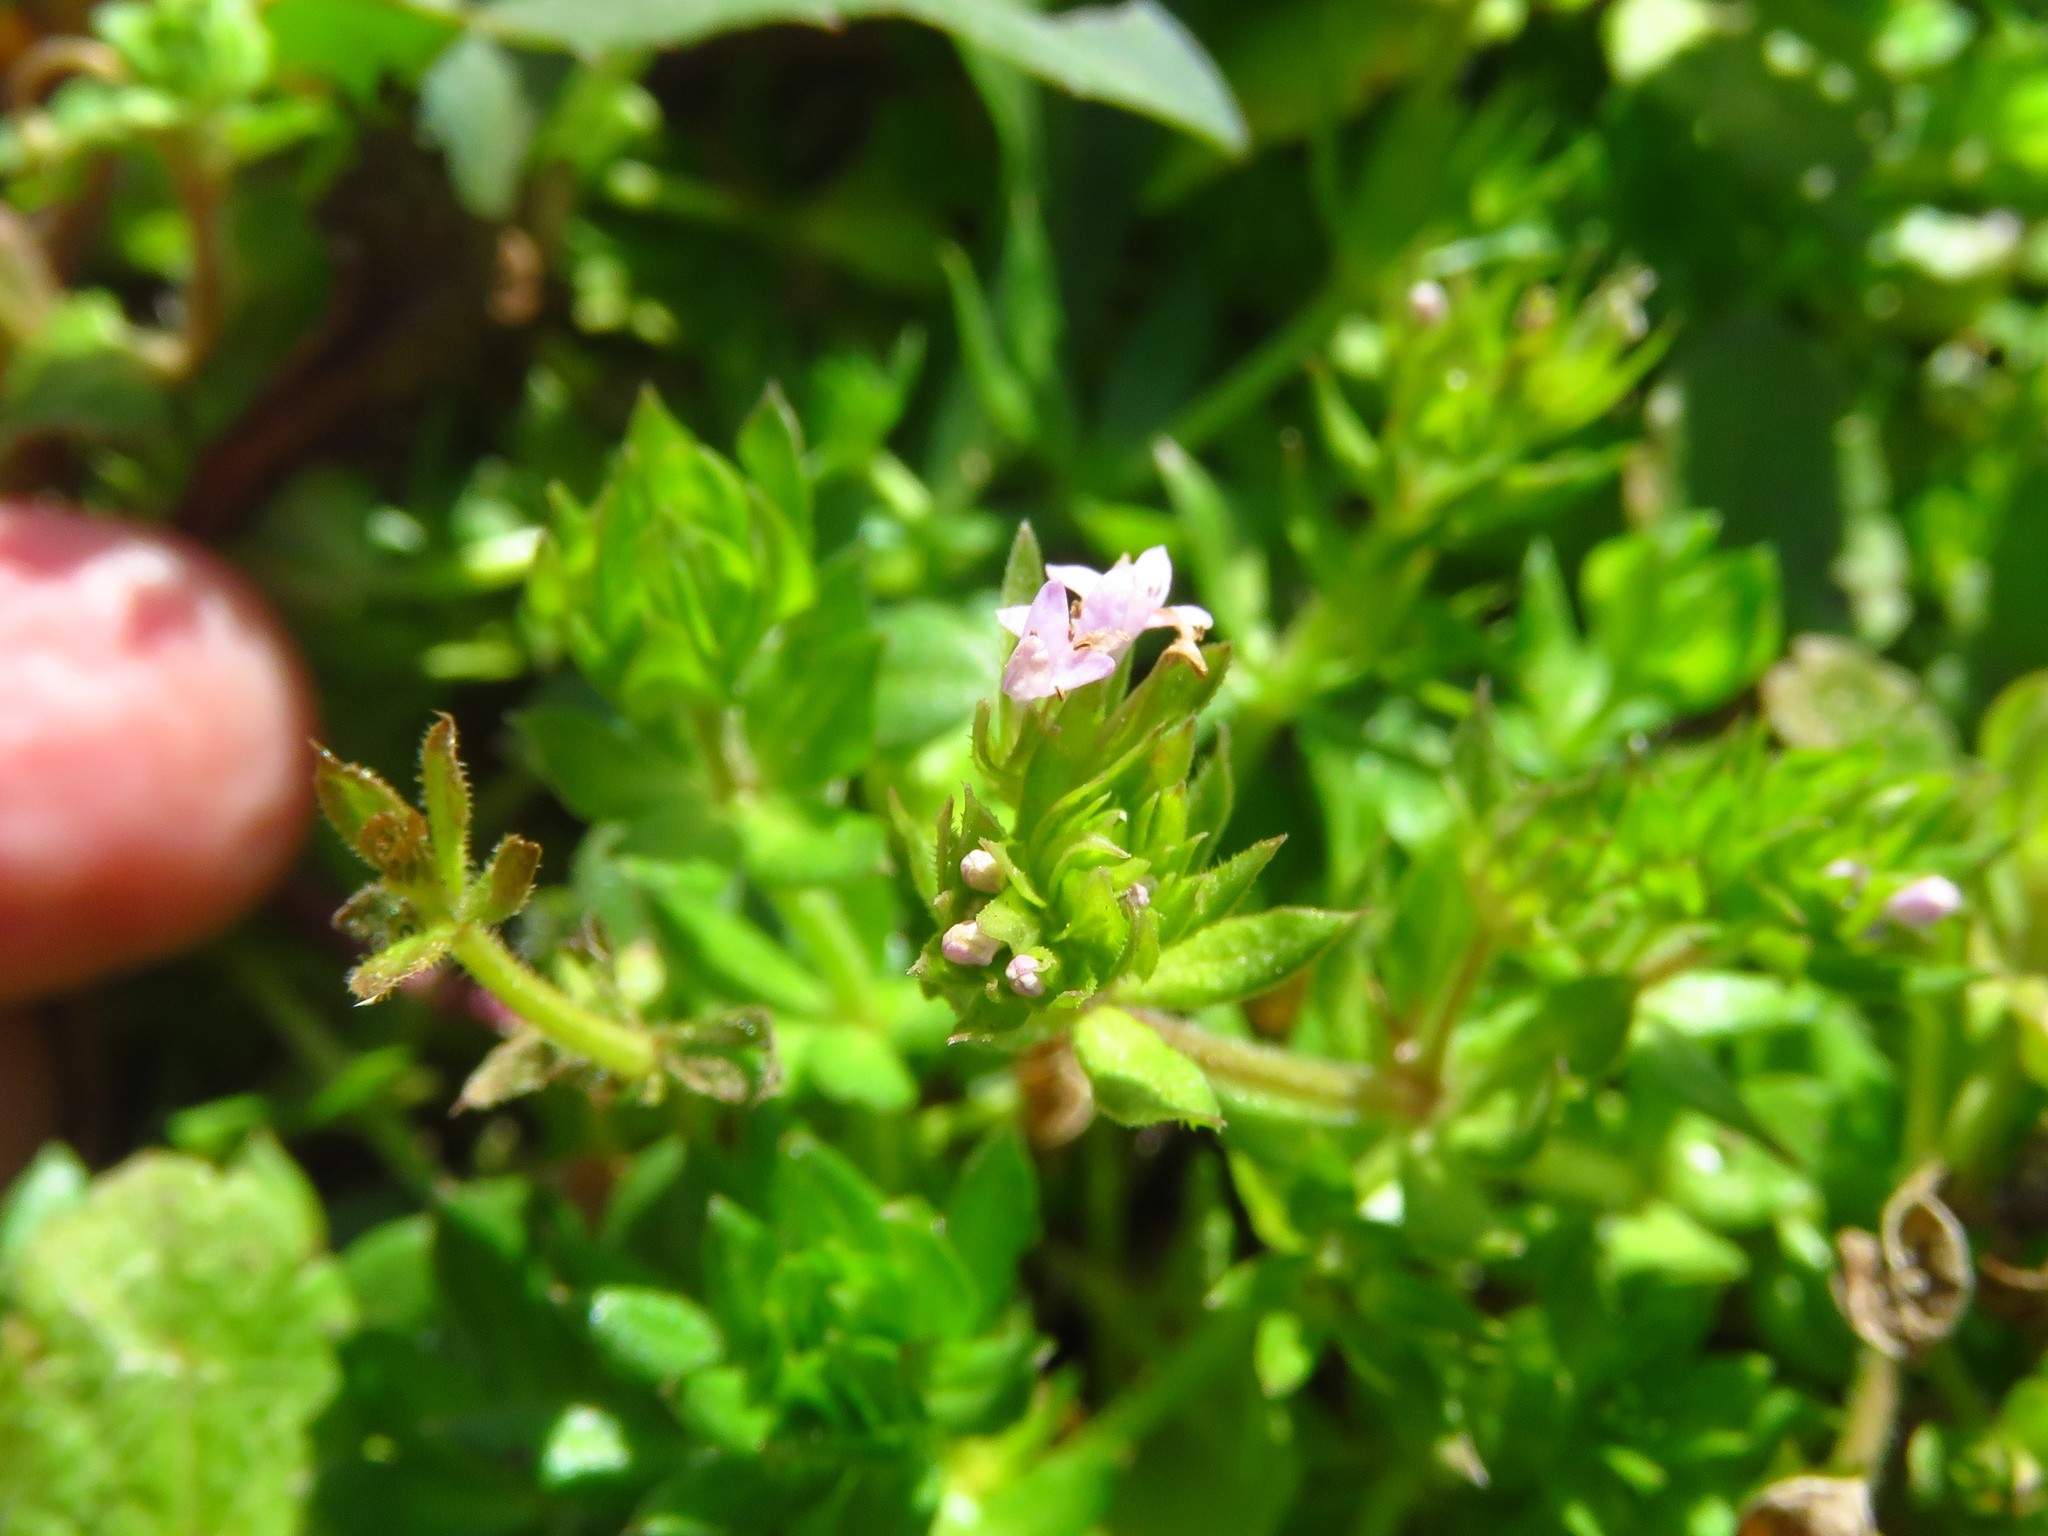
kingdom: Plantae
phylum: Tracheophyta
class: Magnoliopsida
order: Gentianales
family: Rubiaceae
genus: Sherardia
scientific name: Sherardia arvensis
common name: Field madder
